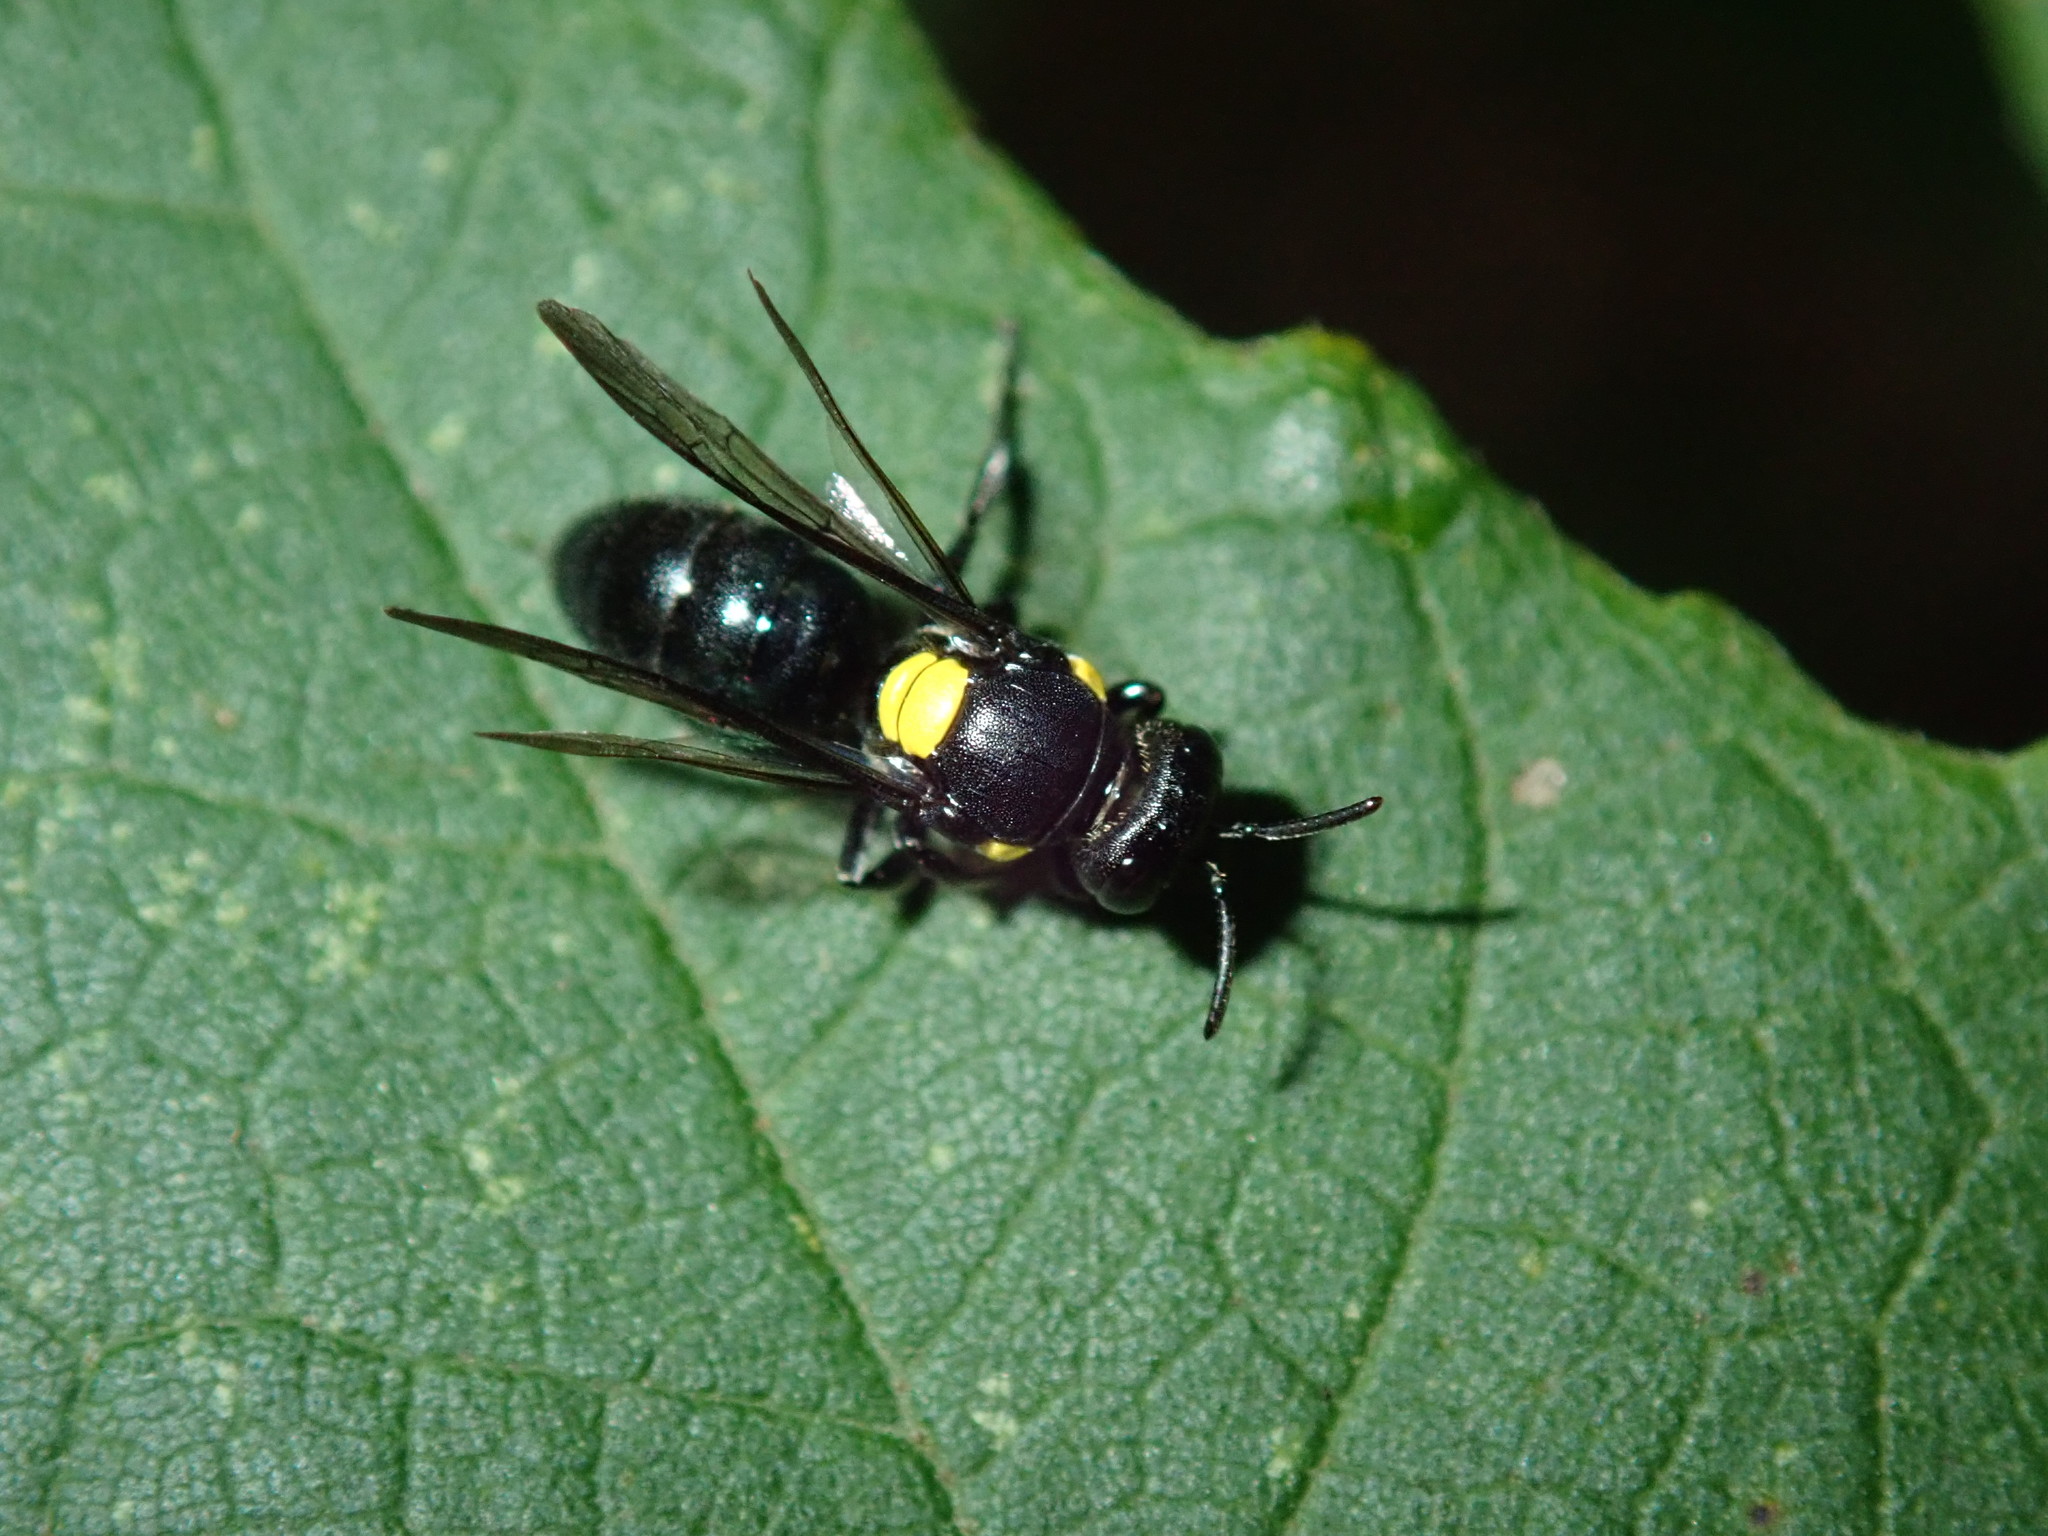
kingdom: Animalia
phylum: Arthropoda
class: Insecta
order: Hymenoptera
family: Colletidae
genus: Amphylaeus
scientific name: Amphylaeus nubilosellus
